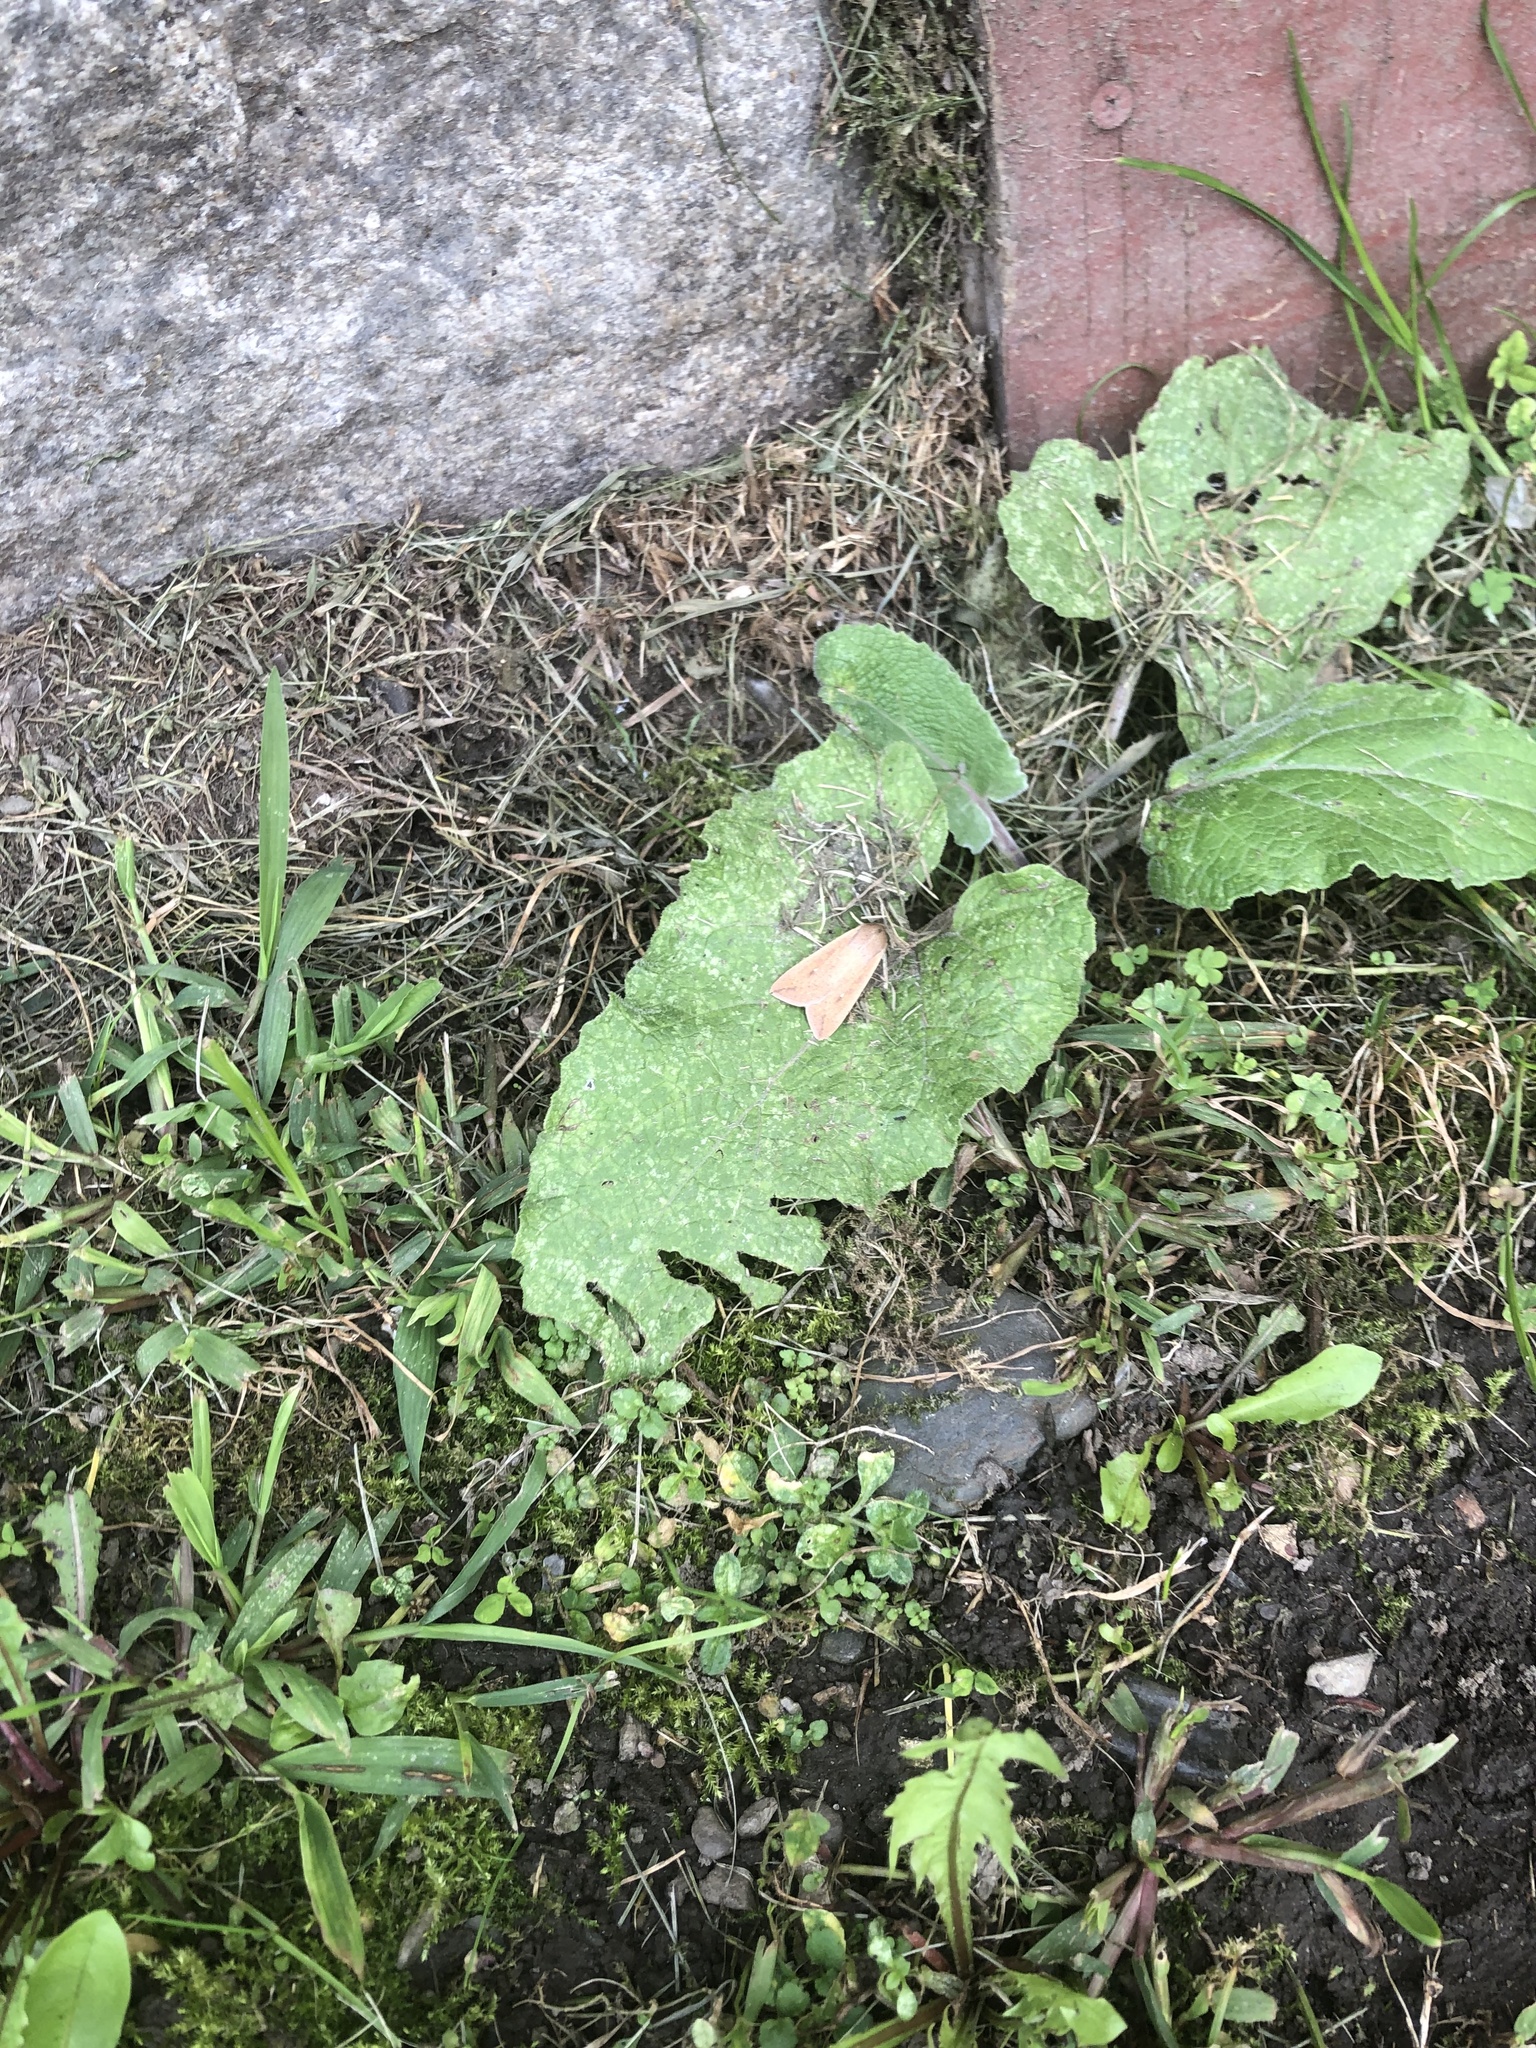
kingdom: Animalia
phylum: Arthropoda
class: Insecta
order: Lepidoptera
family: Noctuidae
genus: Mythimna
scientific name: Mythimna unipuncta
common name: White-speck
